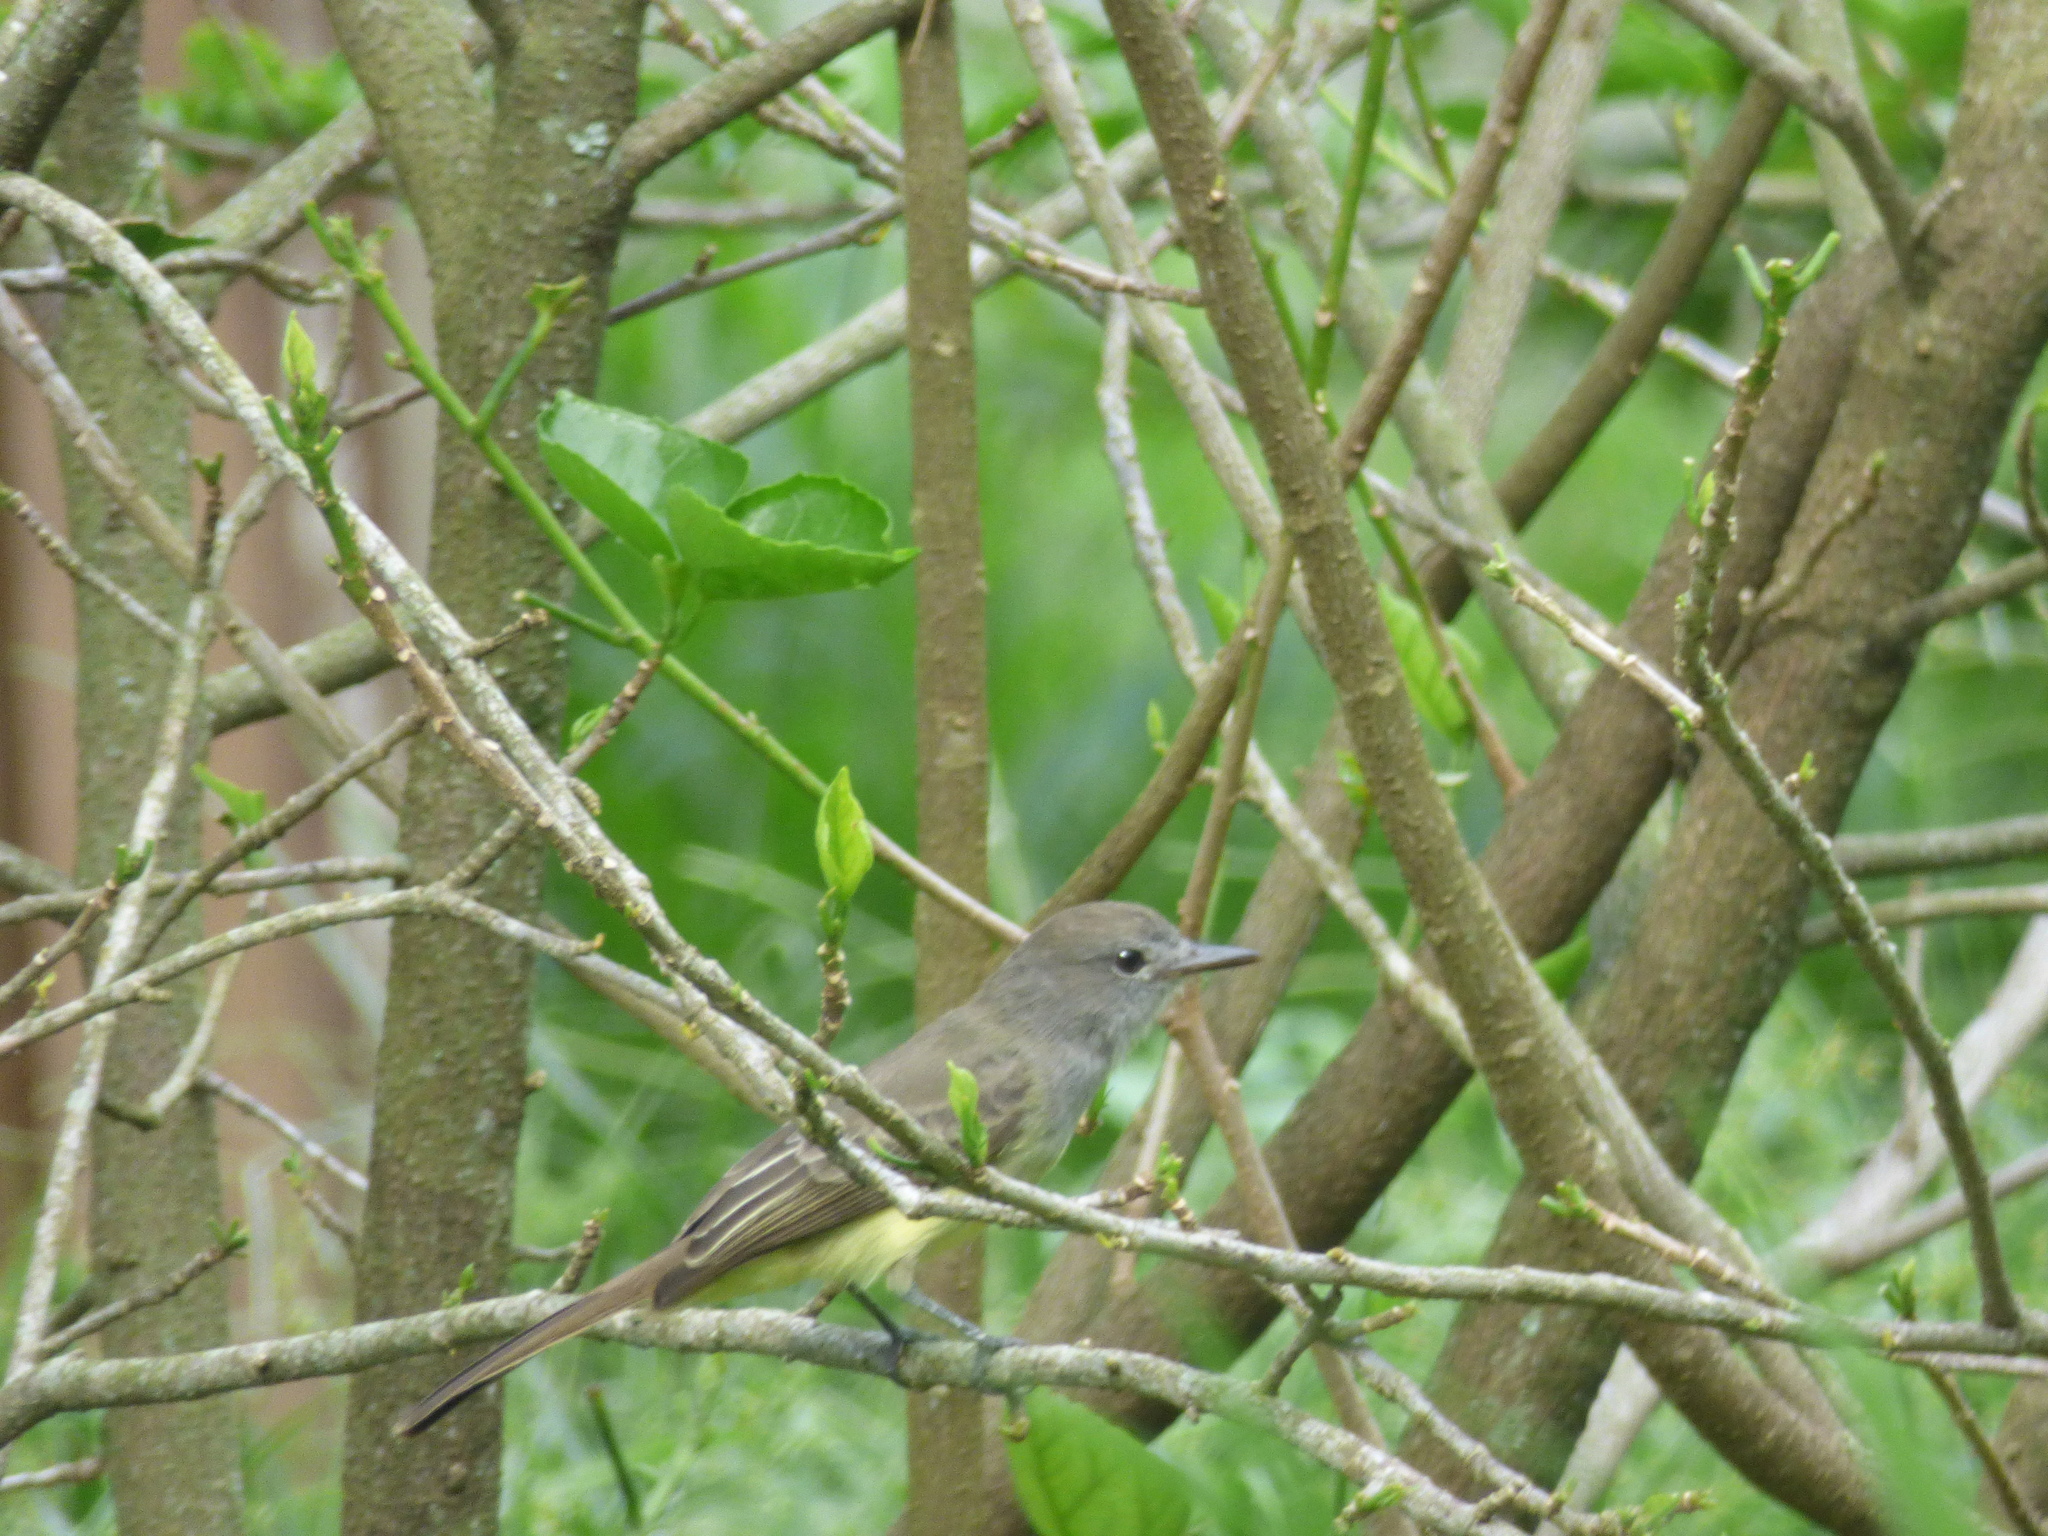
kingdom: Animalia
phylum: Chordata
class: Aves
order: Passeriformes
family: Tyrannidae
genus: Myiarchus
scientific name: Myiarchus cephalotes
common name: Pale-edged flycatcher
